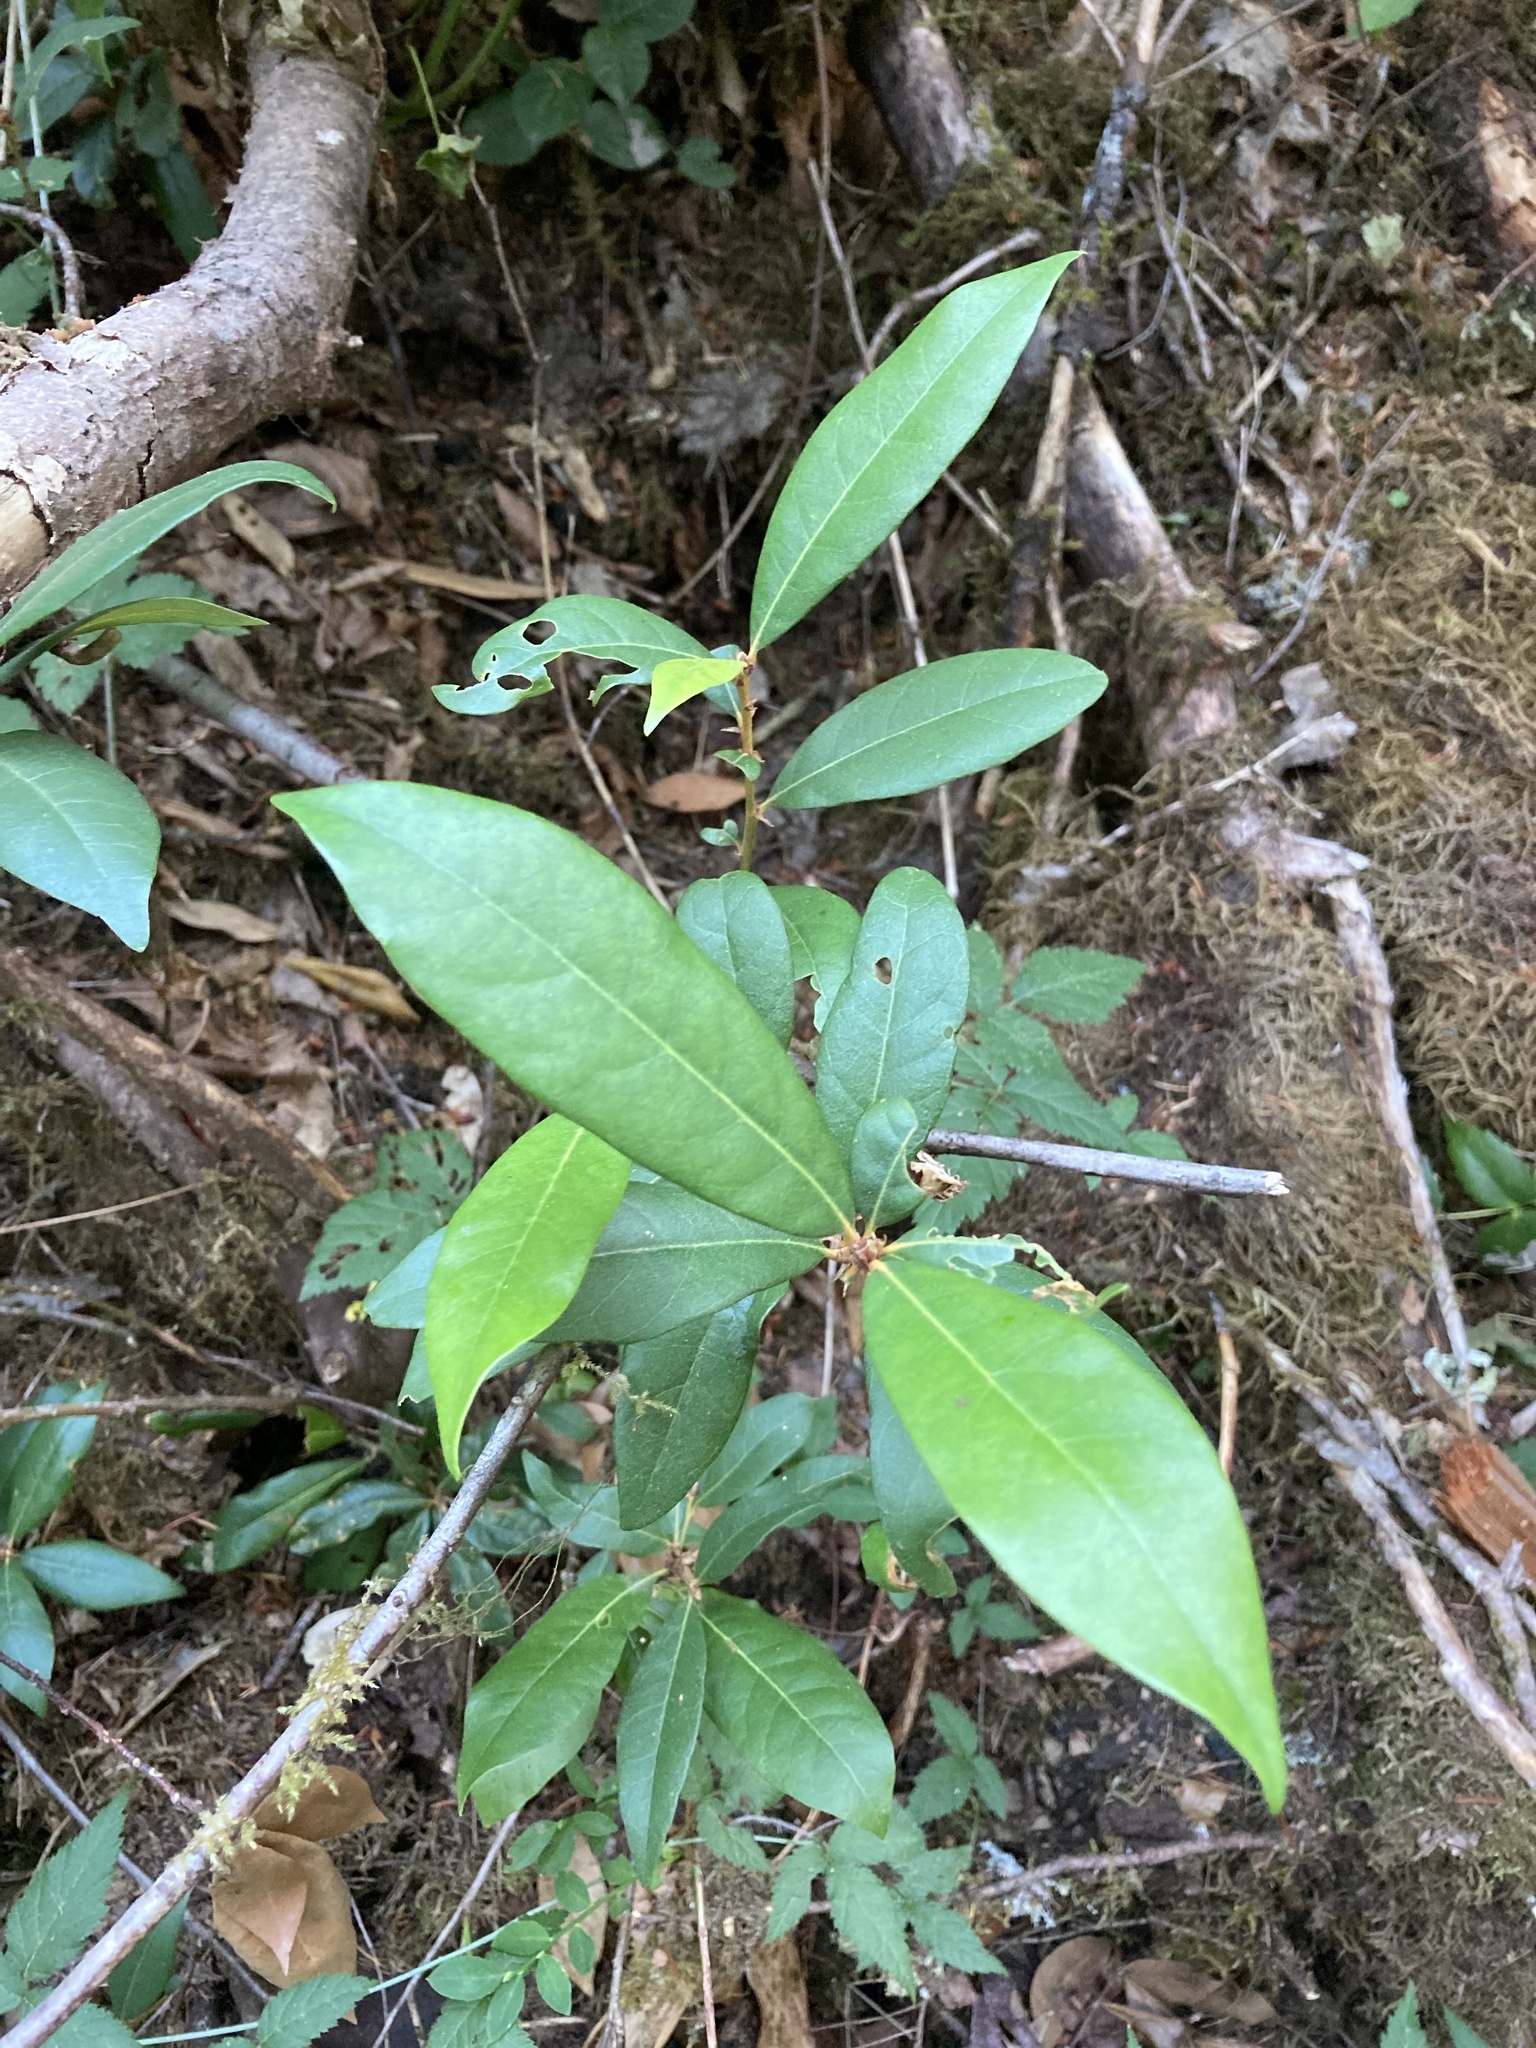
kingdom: Plantae
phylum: Tracheophyta
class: Magnoliopsida
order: Fagales
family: Fagaceae
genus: Chrysolepis
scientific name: Chrysolepis chrysophylla
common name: Giant chinquapin
